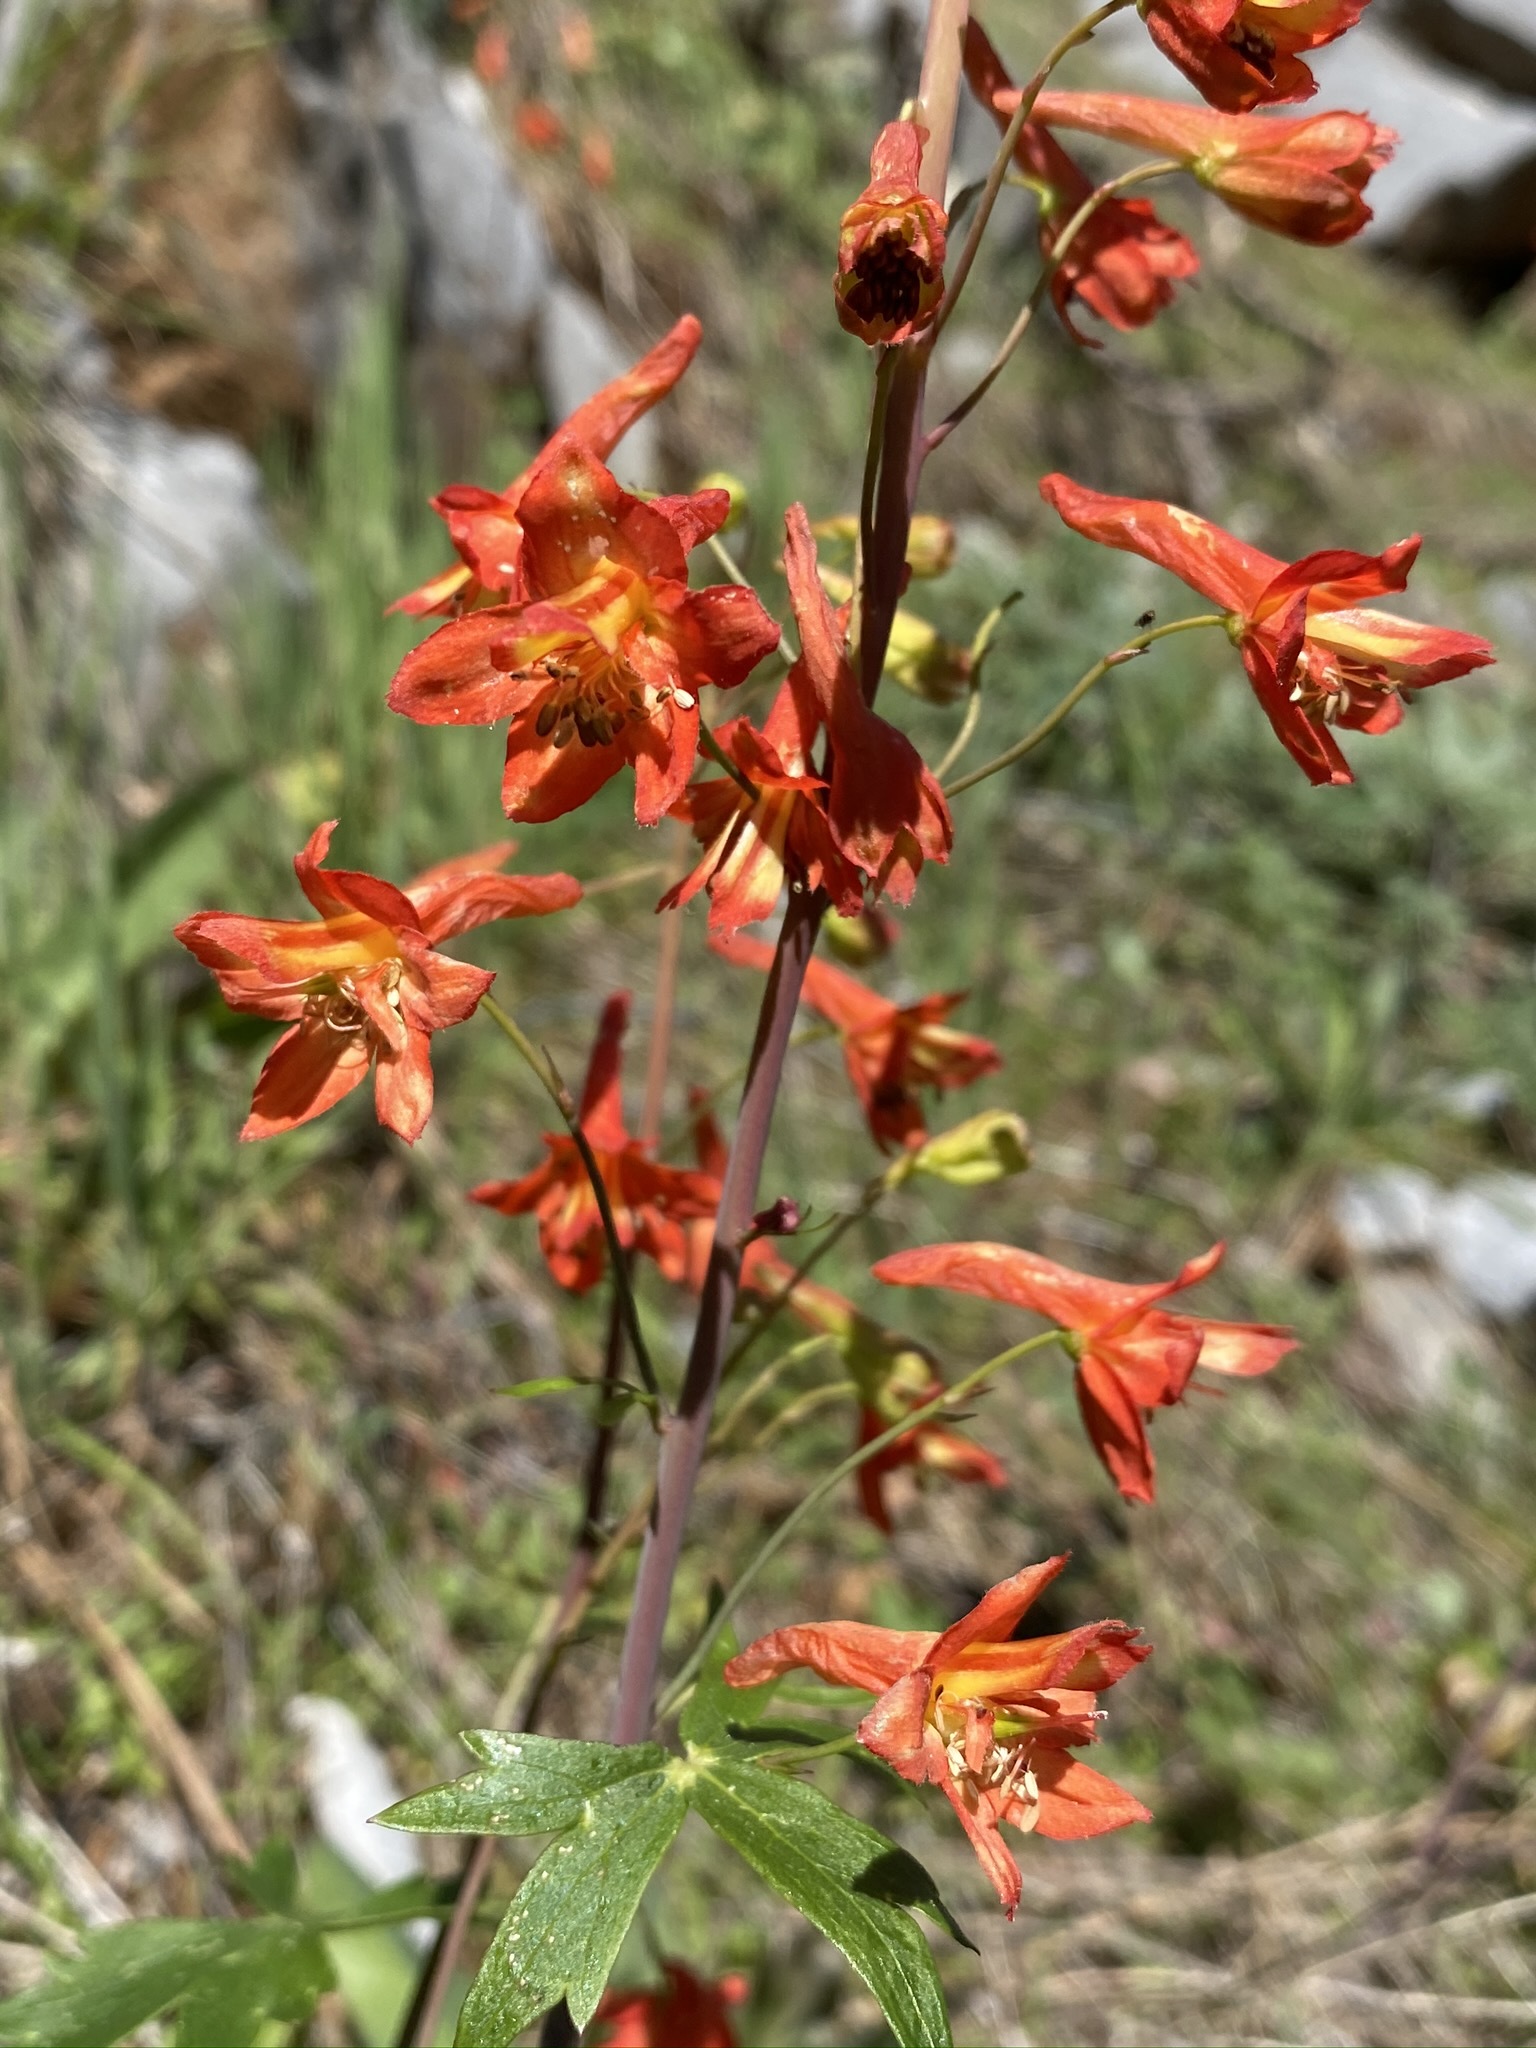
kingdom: Plantae
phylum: Tracheophyta
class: Magnoliopsida
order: Ranunculales
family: Ranunculaceae
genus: Delphinium
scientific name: Delphinium nudicaule
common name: Red larkspur
